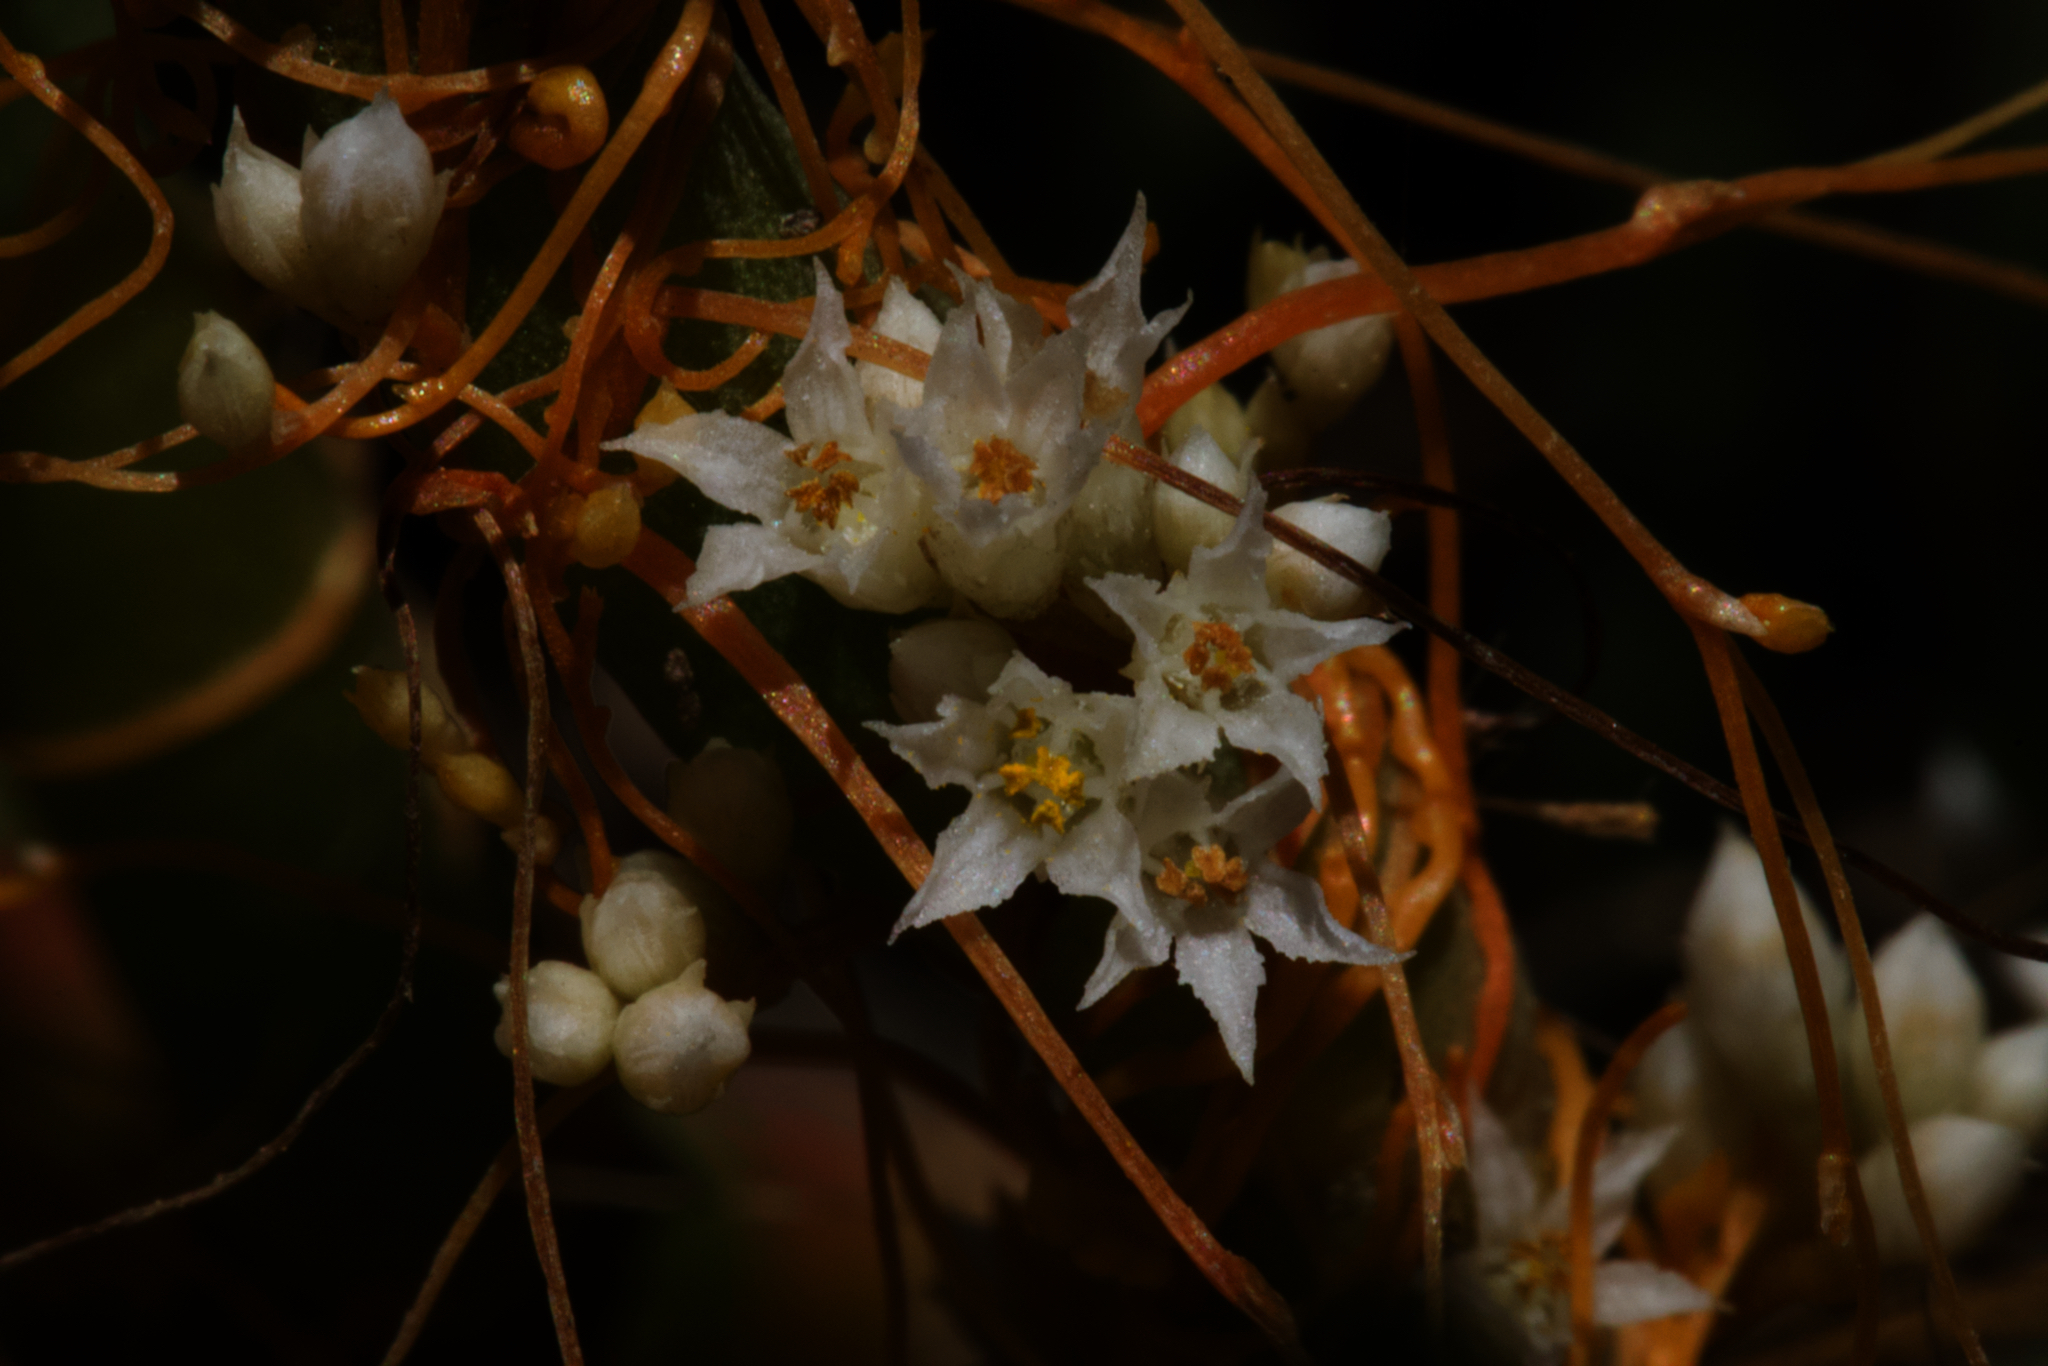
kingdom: Plantae
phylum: Tracheophyta
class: Magnoliopsida
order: Solanales
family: Convolvulaceae
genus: Cuscuta
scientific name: Cuscuta pacifica
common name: Large saltmarsh dodder
